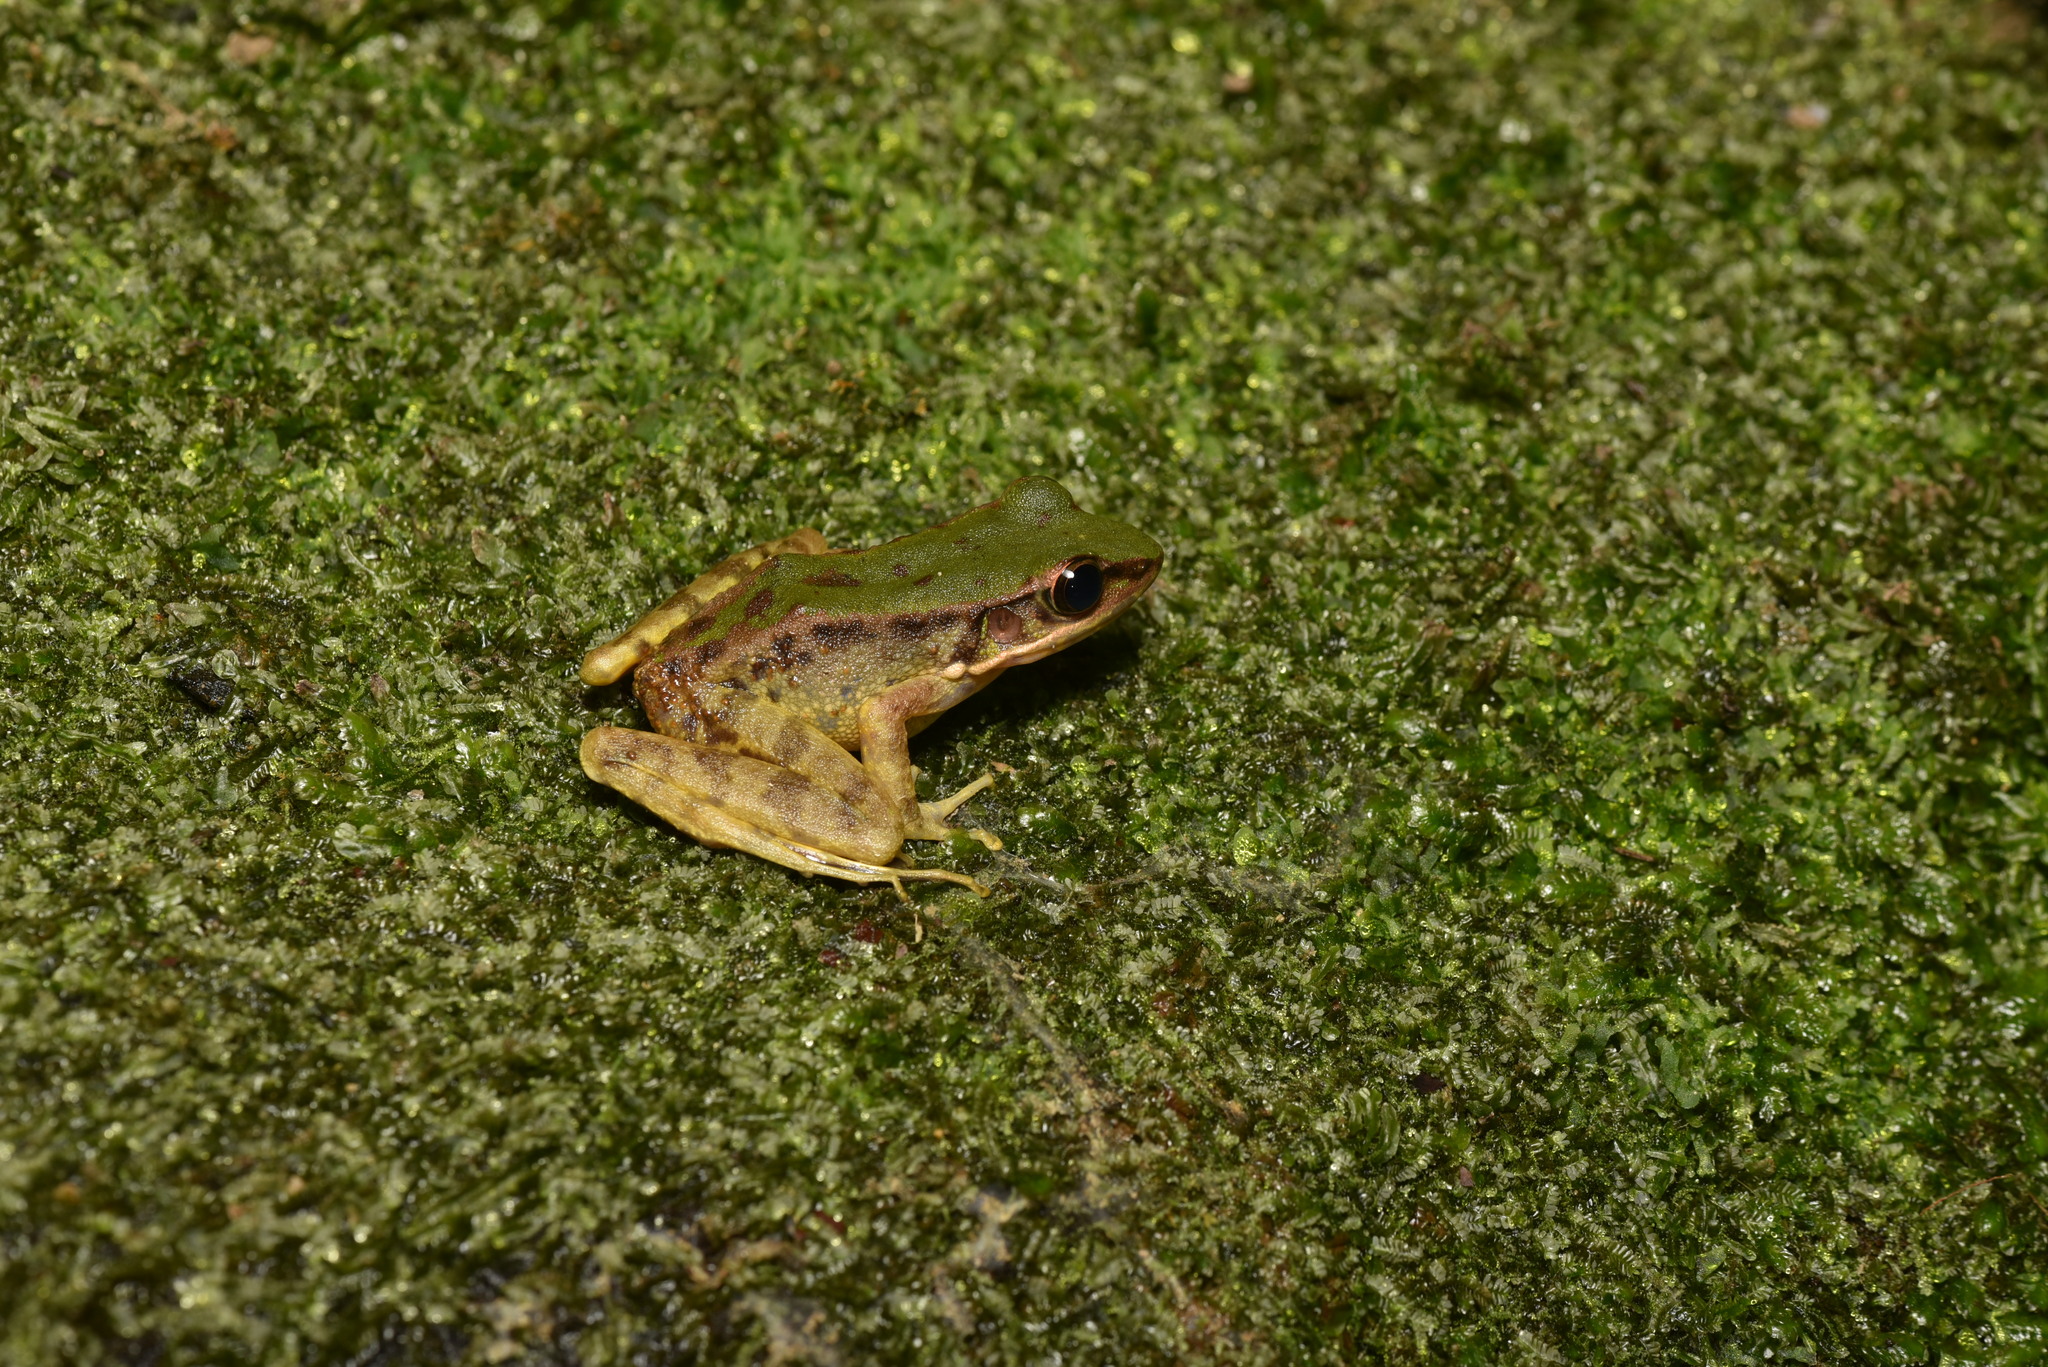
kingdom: Animalia
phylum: Chordata
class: Amphibia
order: Anura
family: Ranidae
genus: Odorrana
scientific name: Odorrana swinhoana
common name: Bangkimtsing frog
